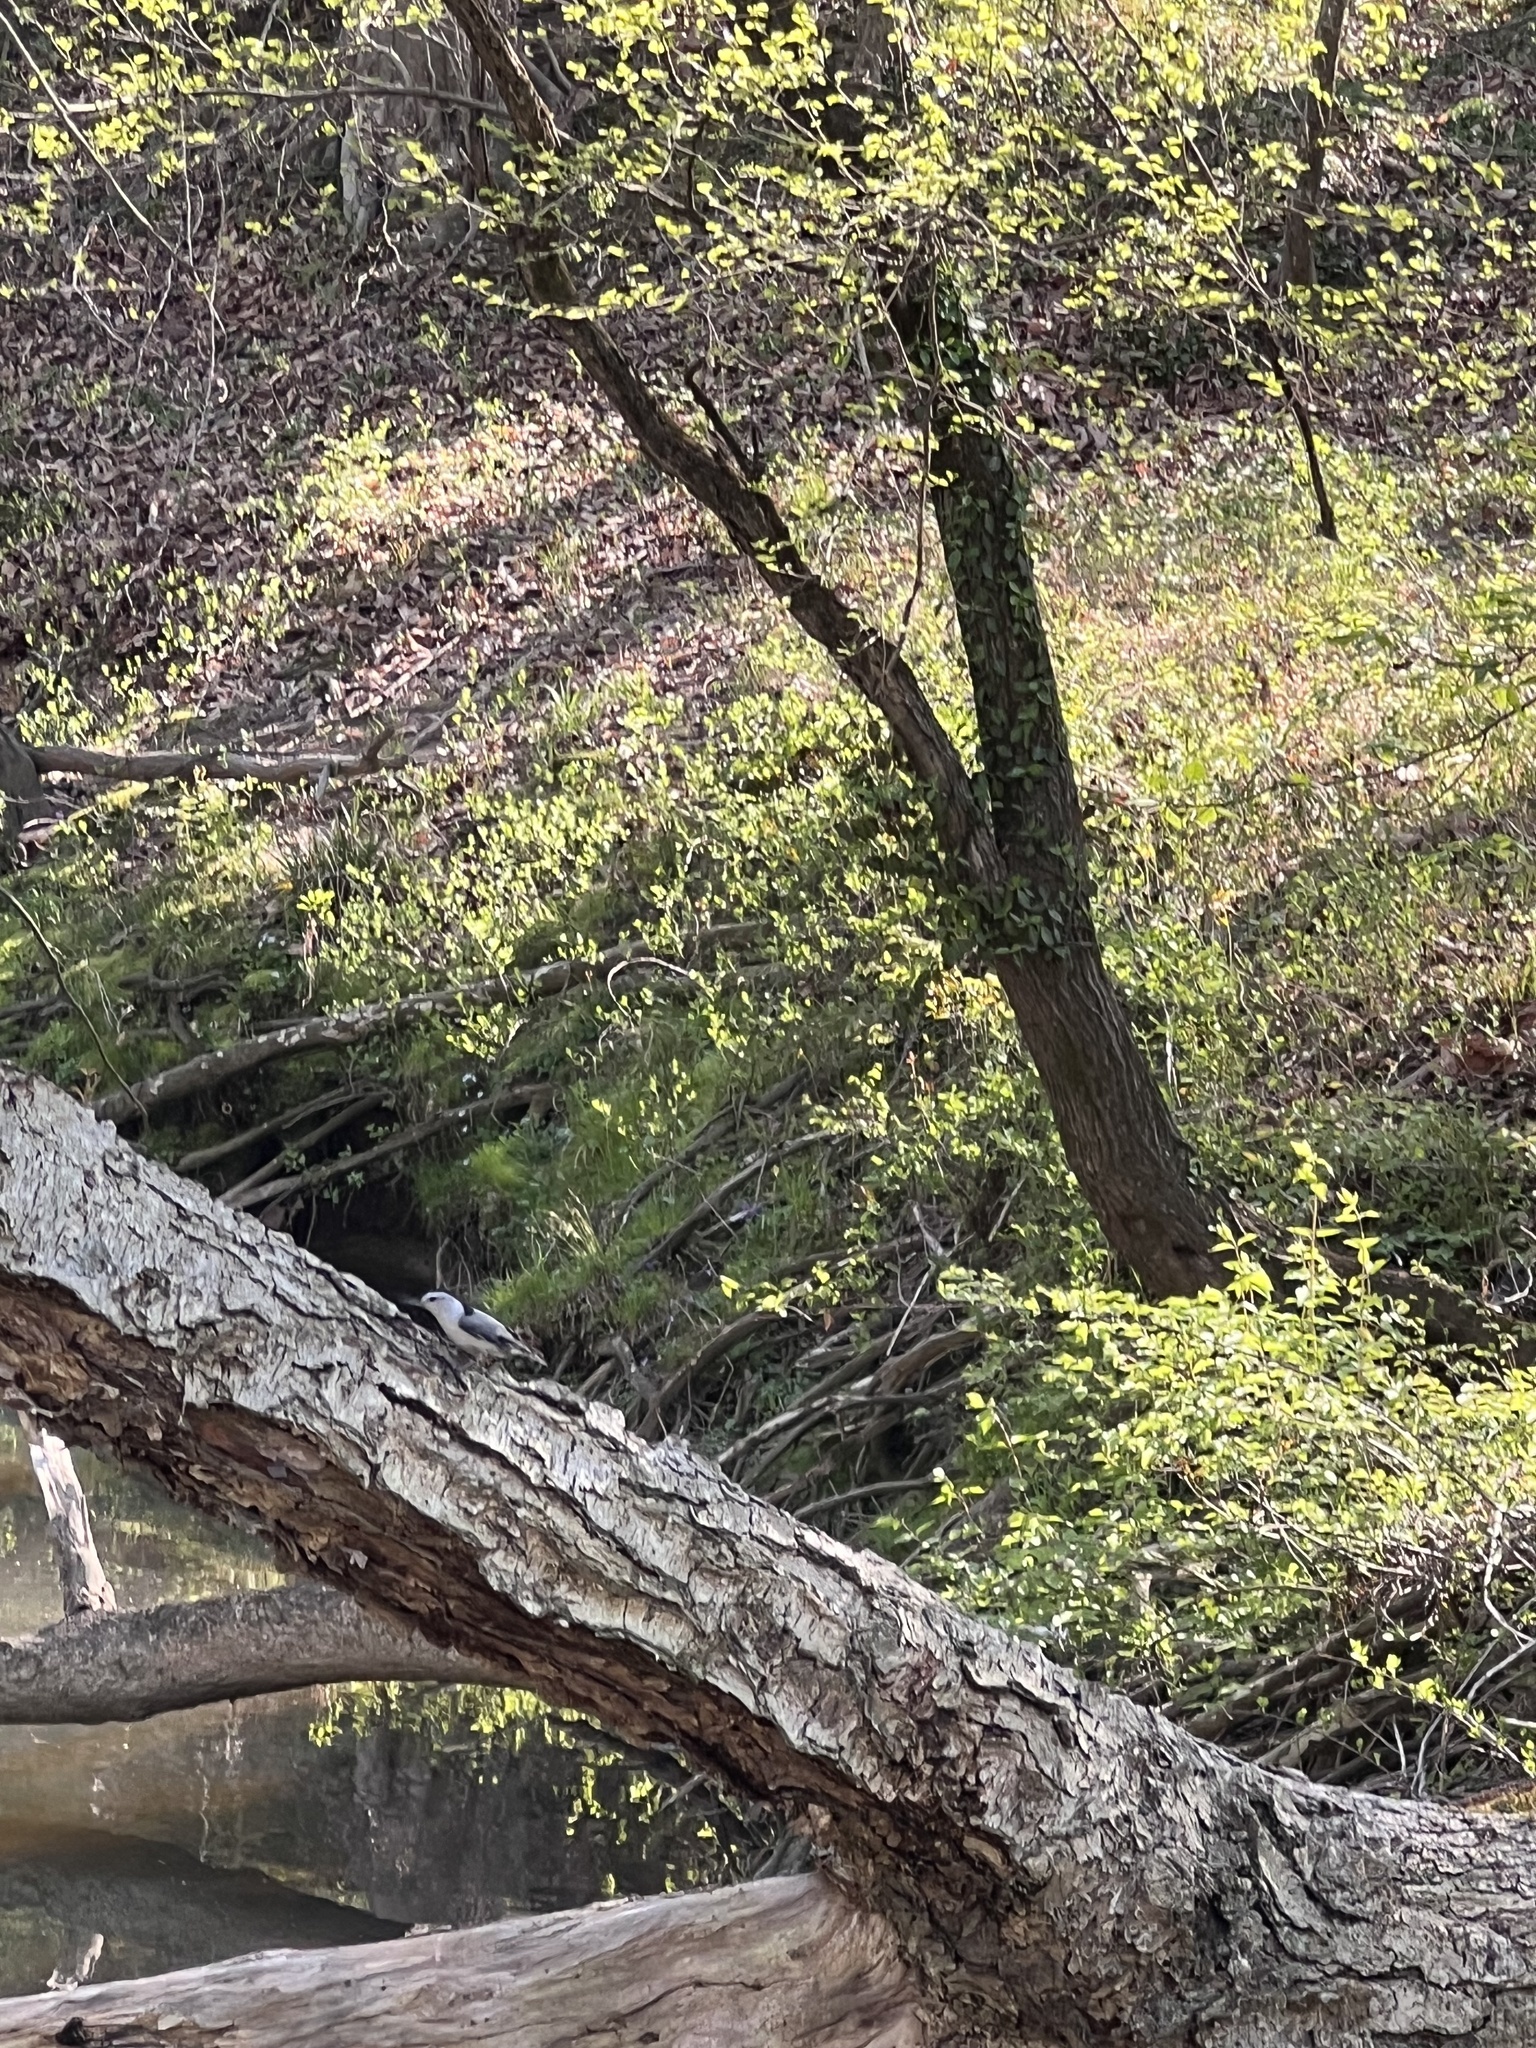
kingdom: Animalia
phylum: Chordata
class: Aves
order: Passeriformes
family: Sittidae
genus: Sitta
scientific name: Sitta carolinensis
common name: White-breasted nuthatch
